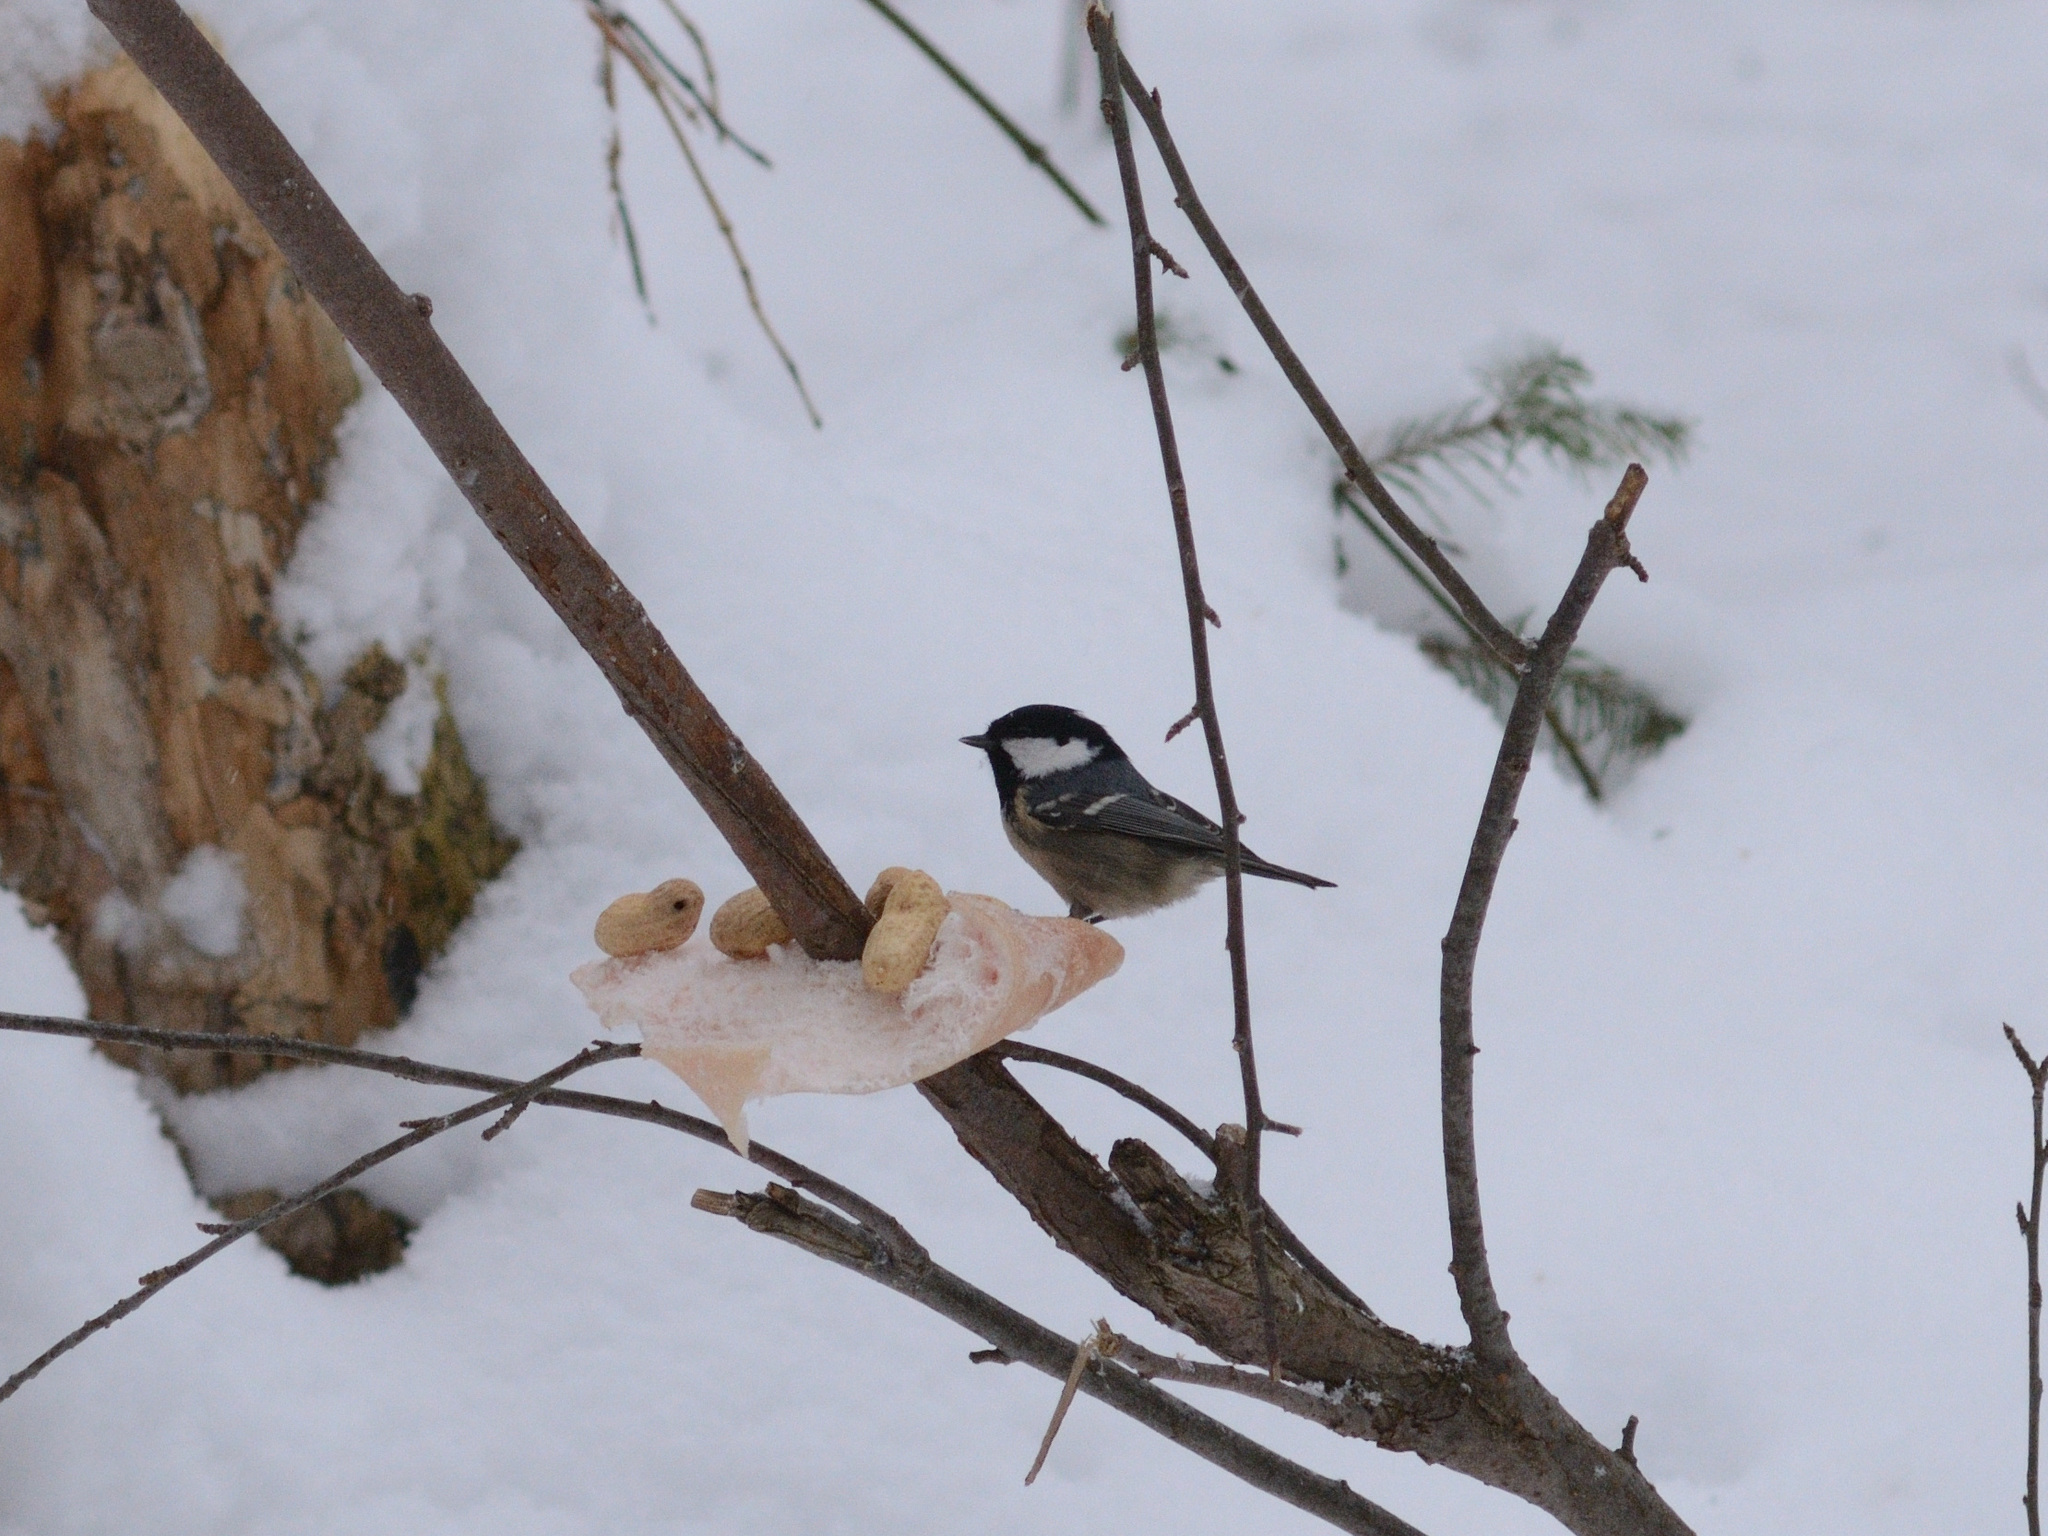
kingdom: Animalia
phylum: Chordata
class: Aves
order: Passeriformes
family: Paridae
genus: Periparus
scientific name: Periparus ater
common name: Coal tit
